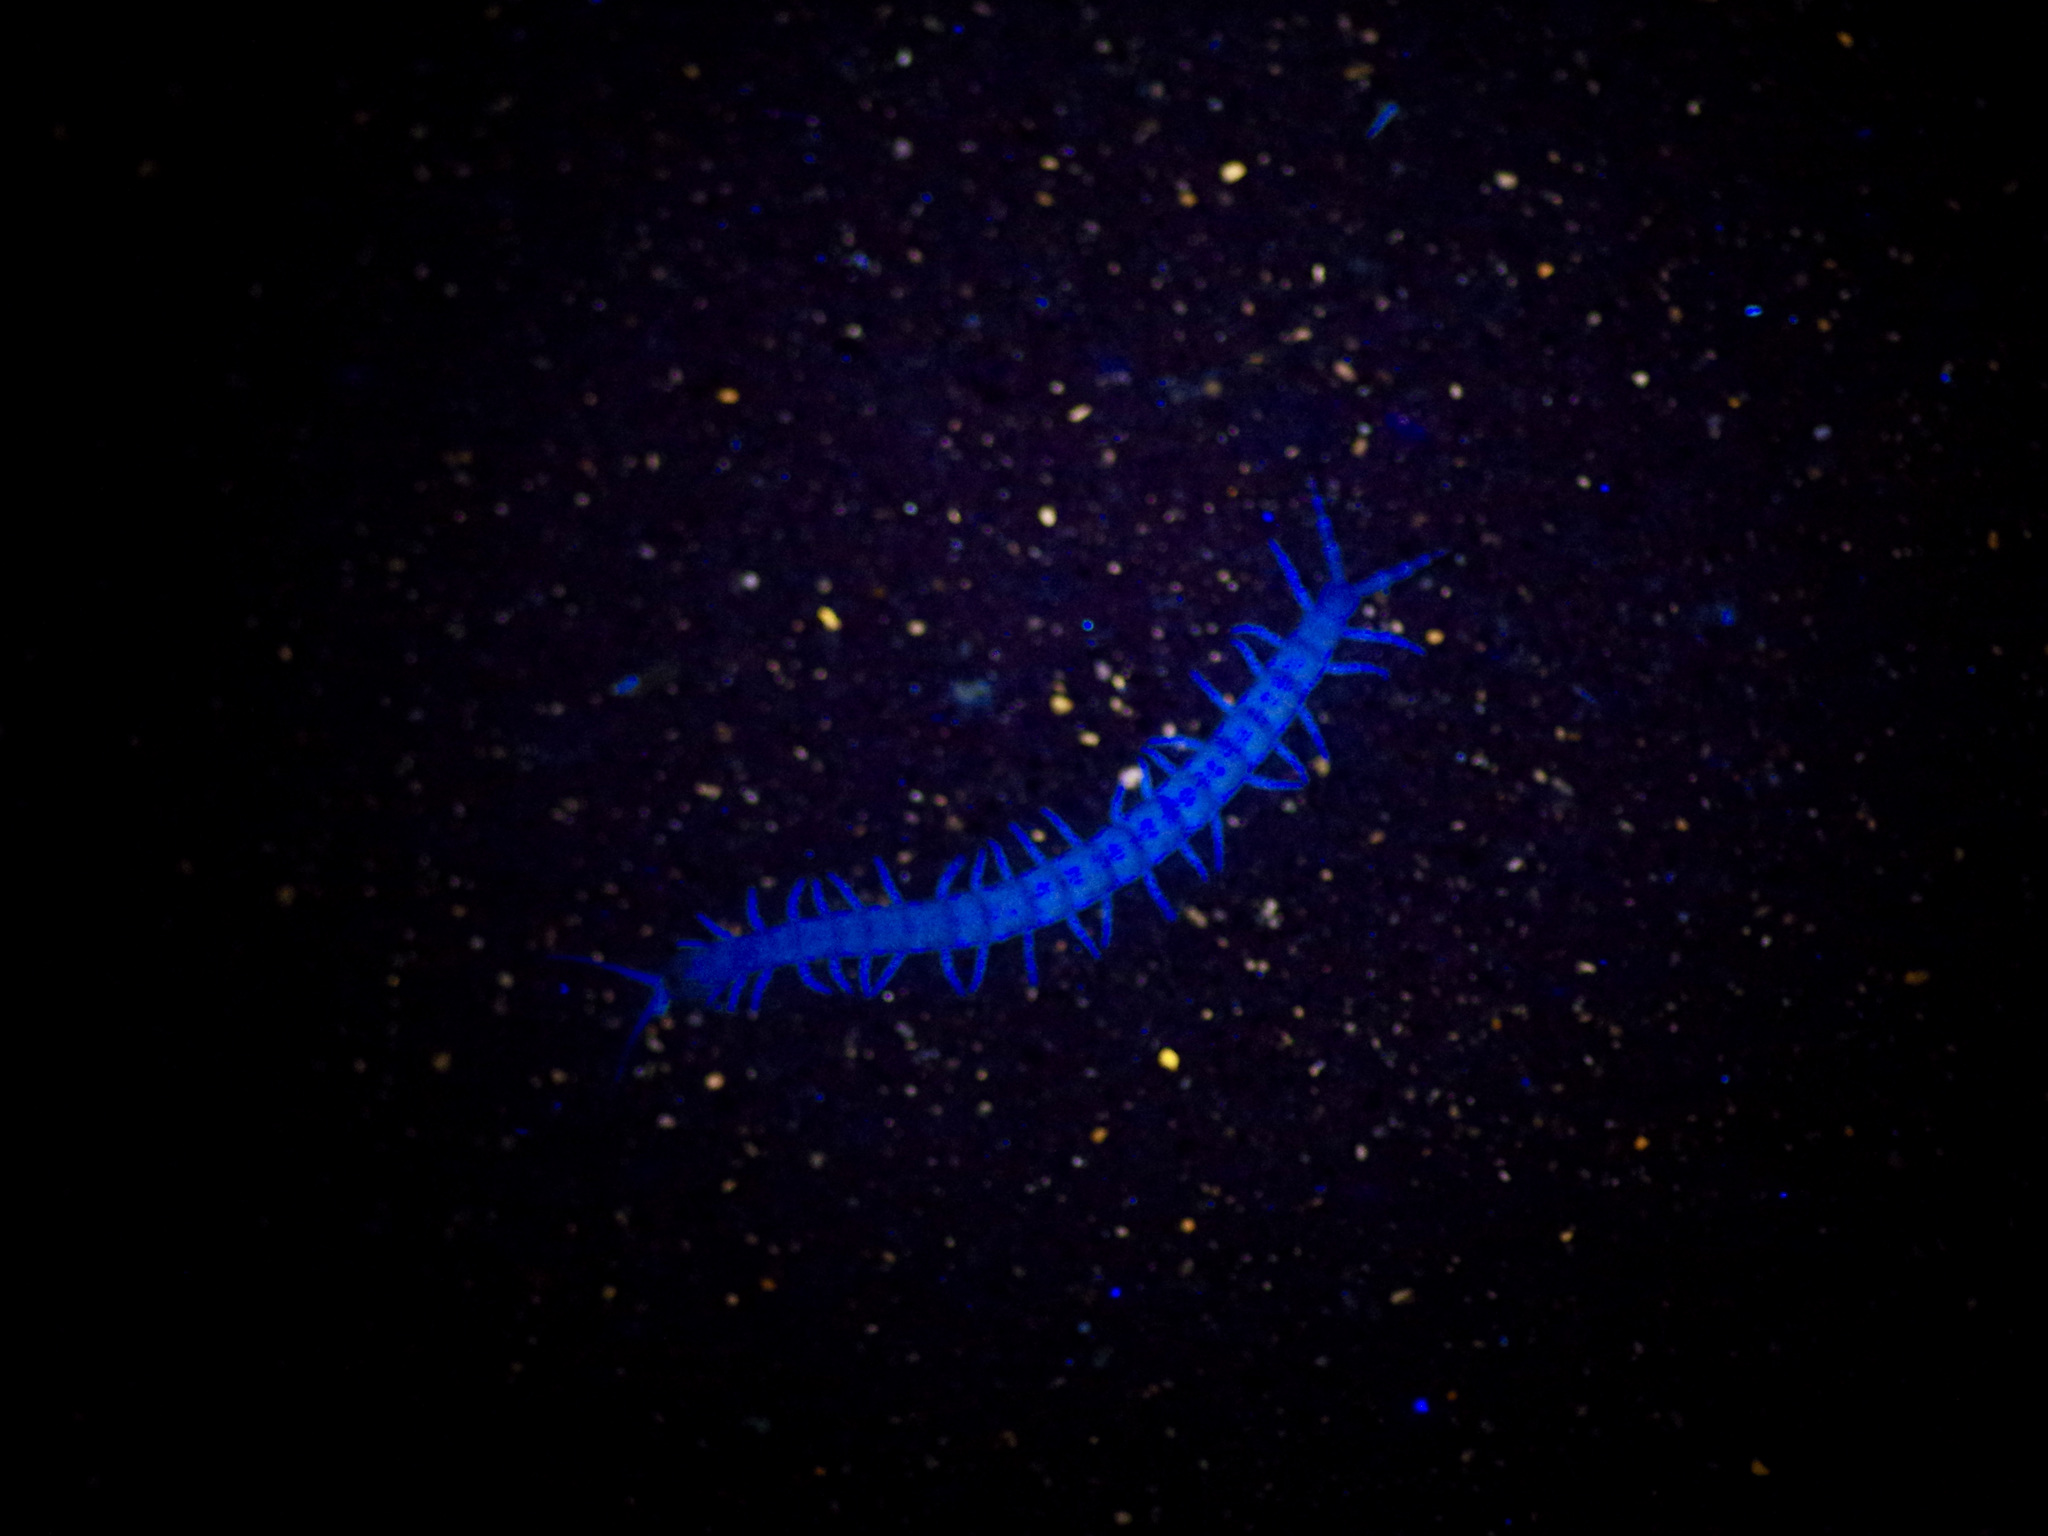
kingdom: Animalia
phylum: Arthropoda
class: Chilopoda
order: Scolopendromorpha
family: Scolopendridae
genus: Hemiscolopendra
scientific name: Hemiscolopendra marginata
